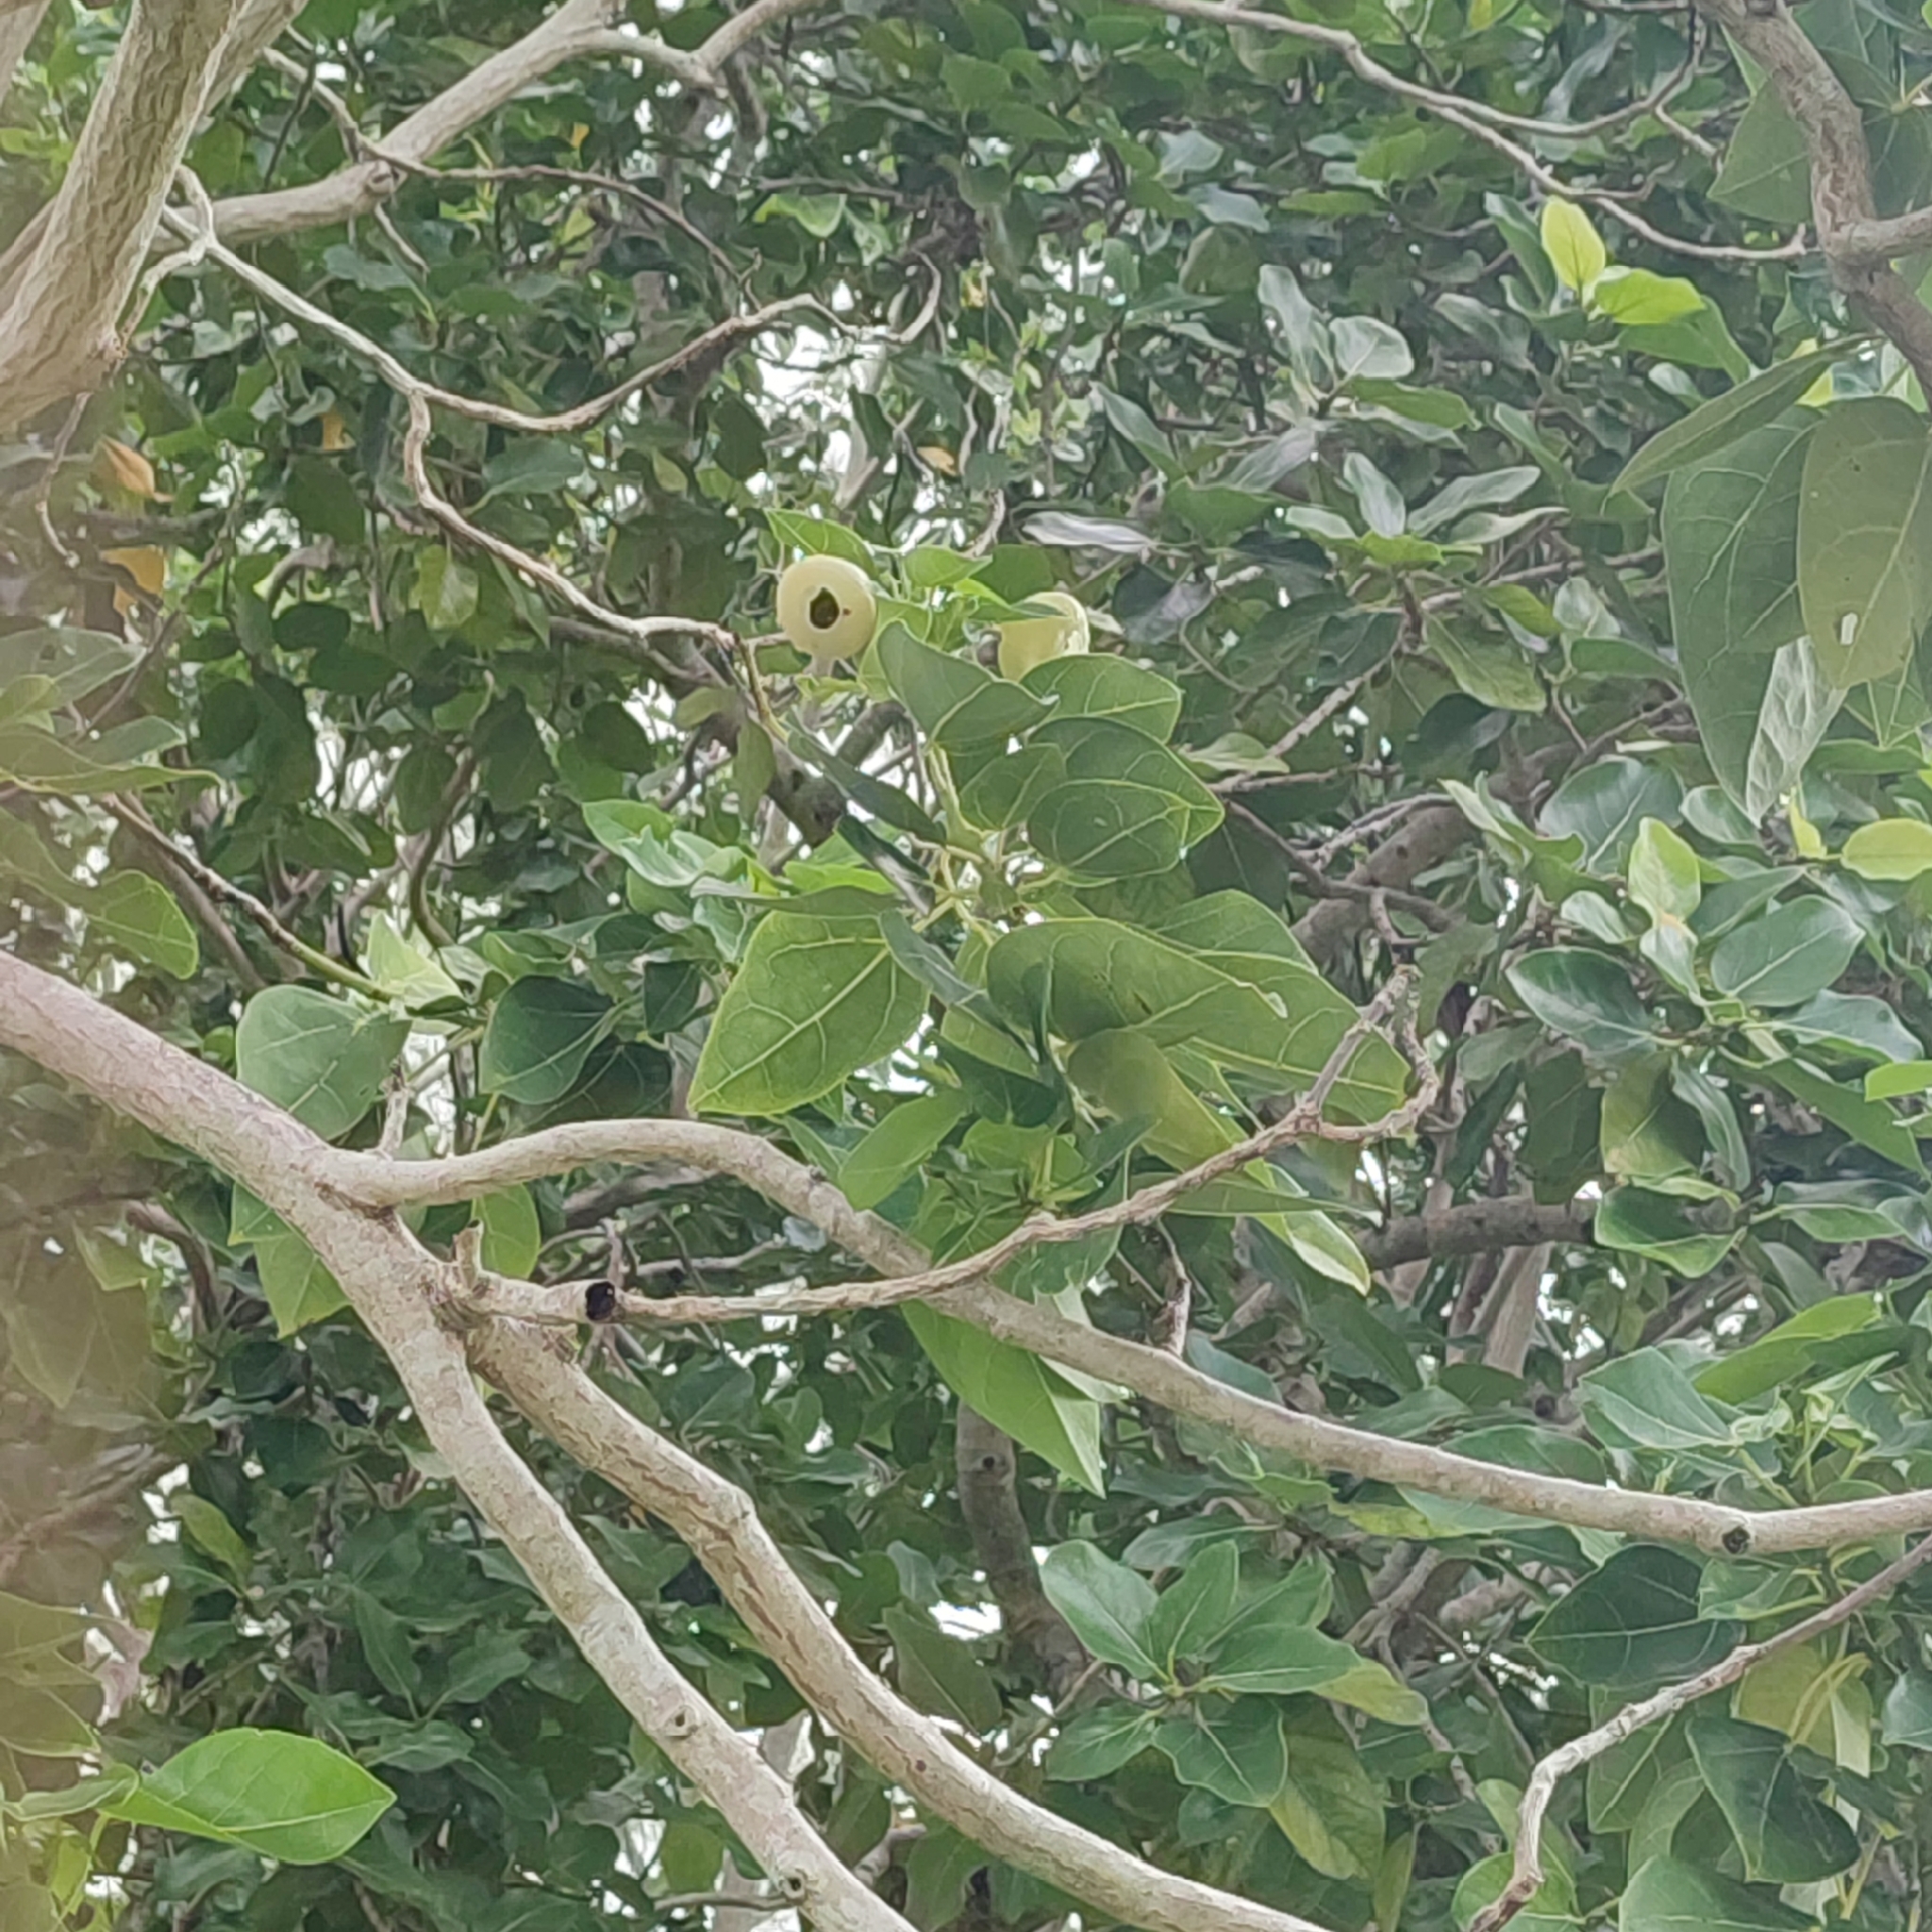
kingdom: Plantae
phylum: Tracheophyta
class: Magnoliopsida
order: Laurales
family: Hernandiaceae
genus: Hernandia
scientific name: Hernandia nymphaeifolia
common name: Sea hearse
